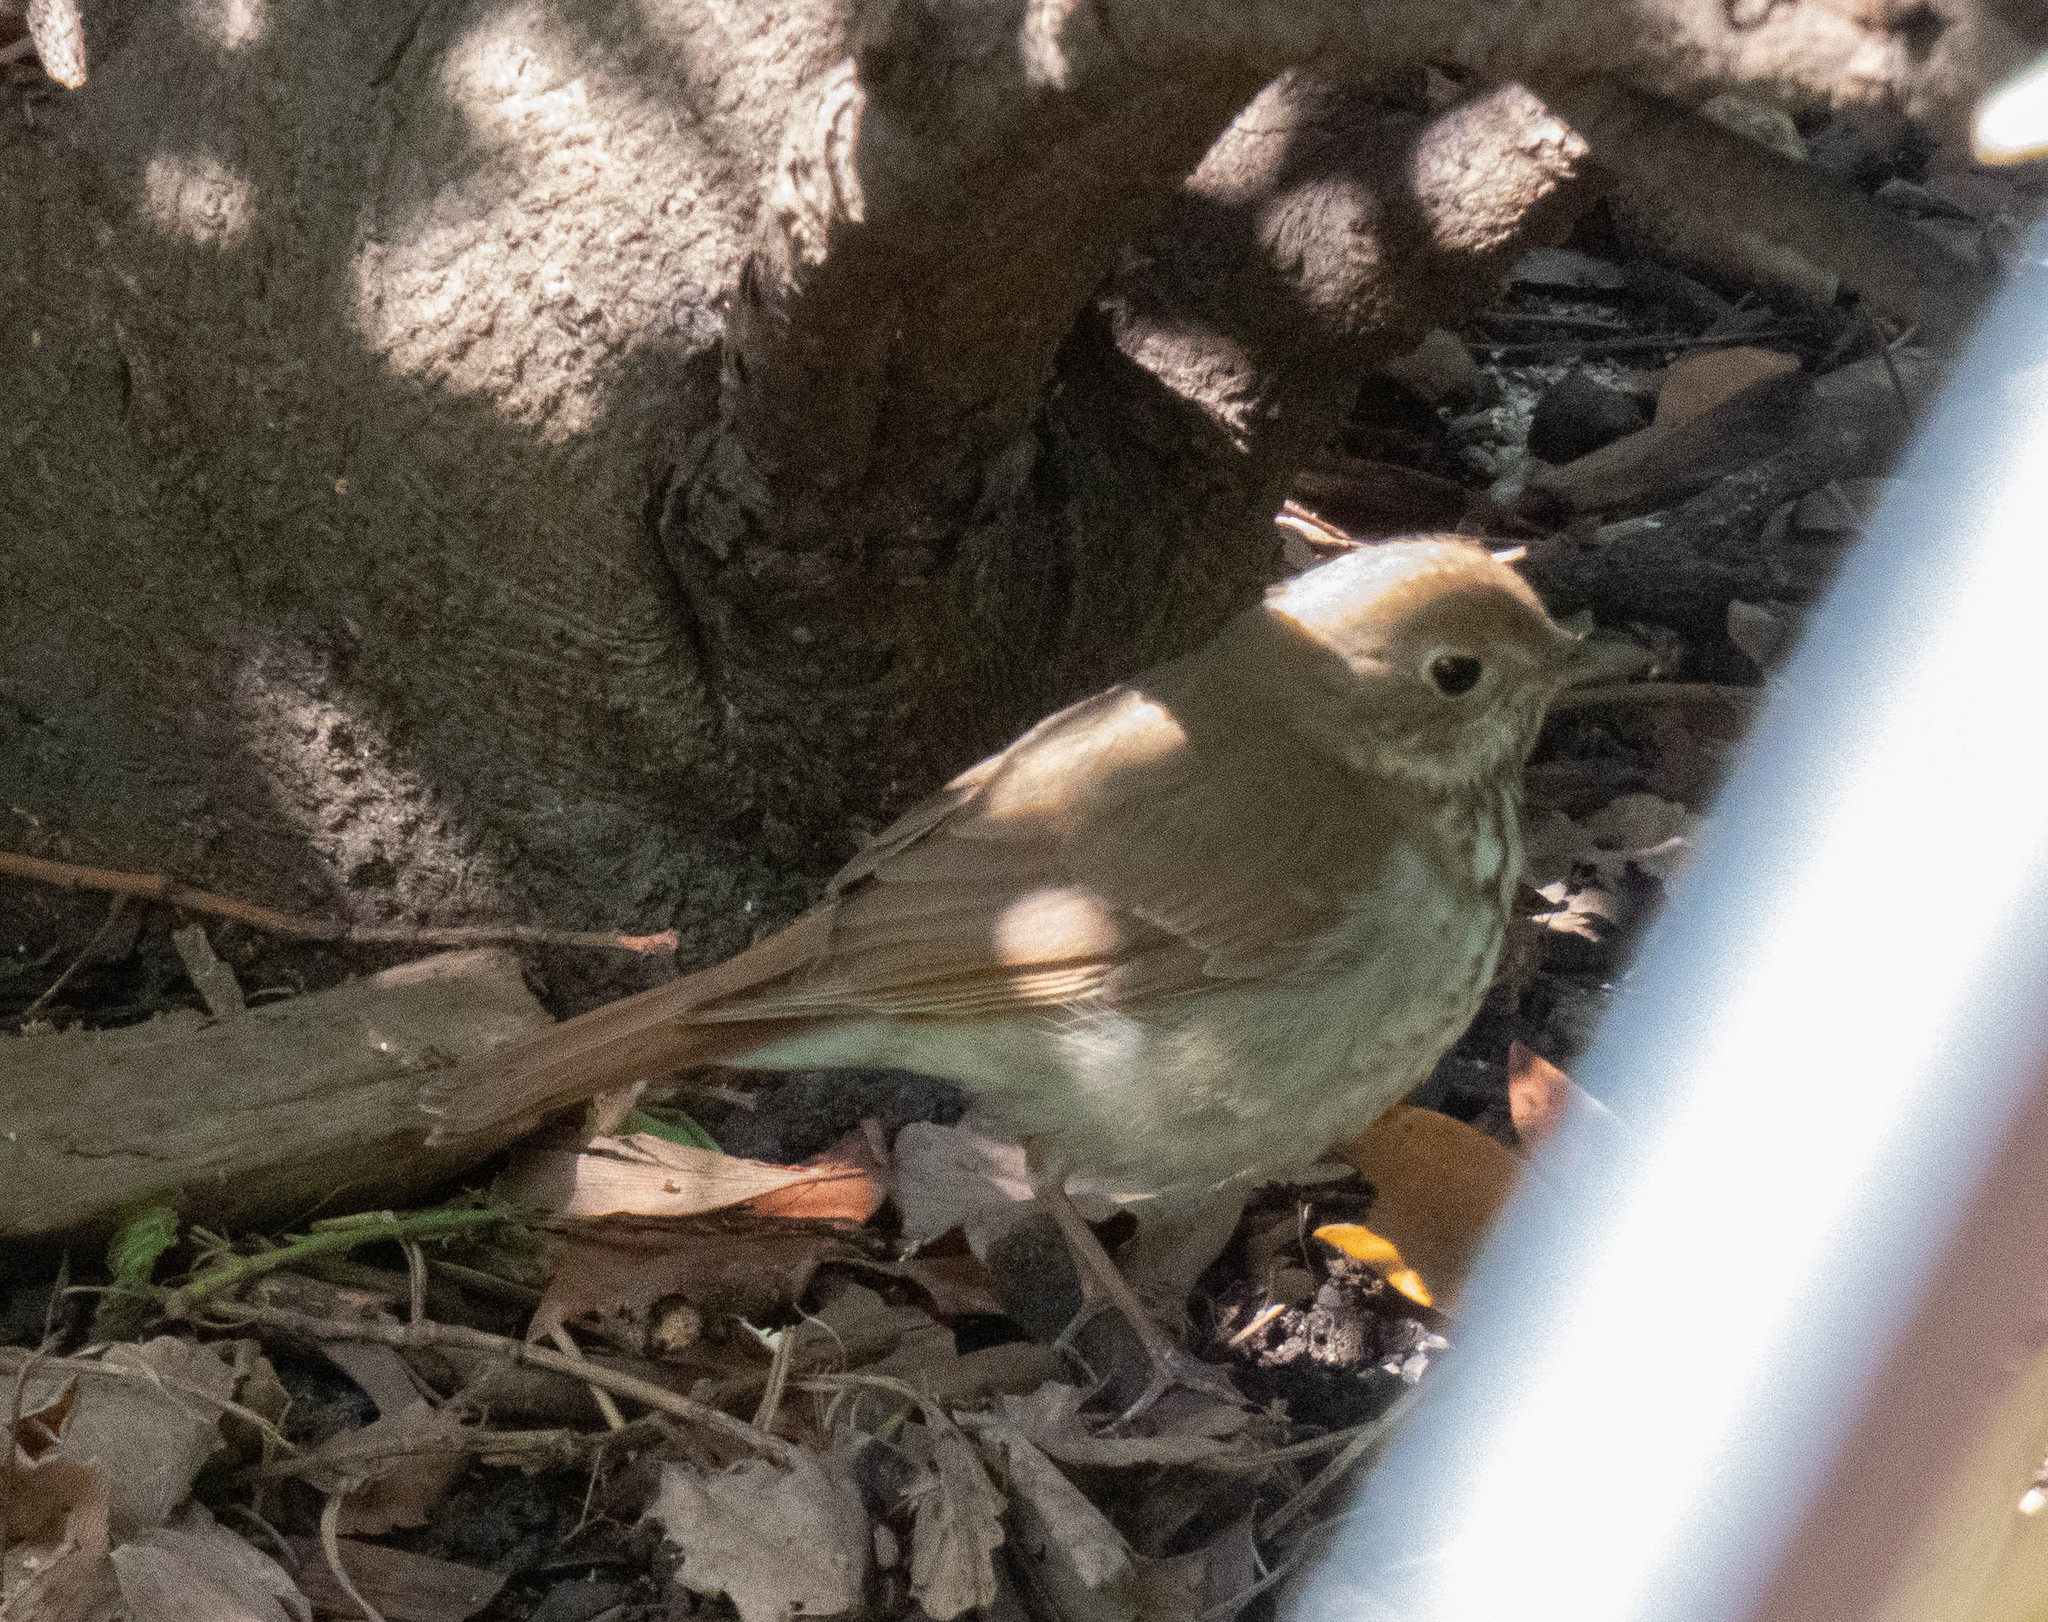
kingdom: Animalia
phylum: Chordata
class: Aves
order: Passeriformes
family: Turdidae
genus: Catharus
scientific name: Catharus guttatus
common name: Hermit thrush
